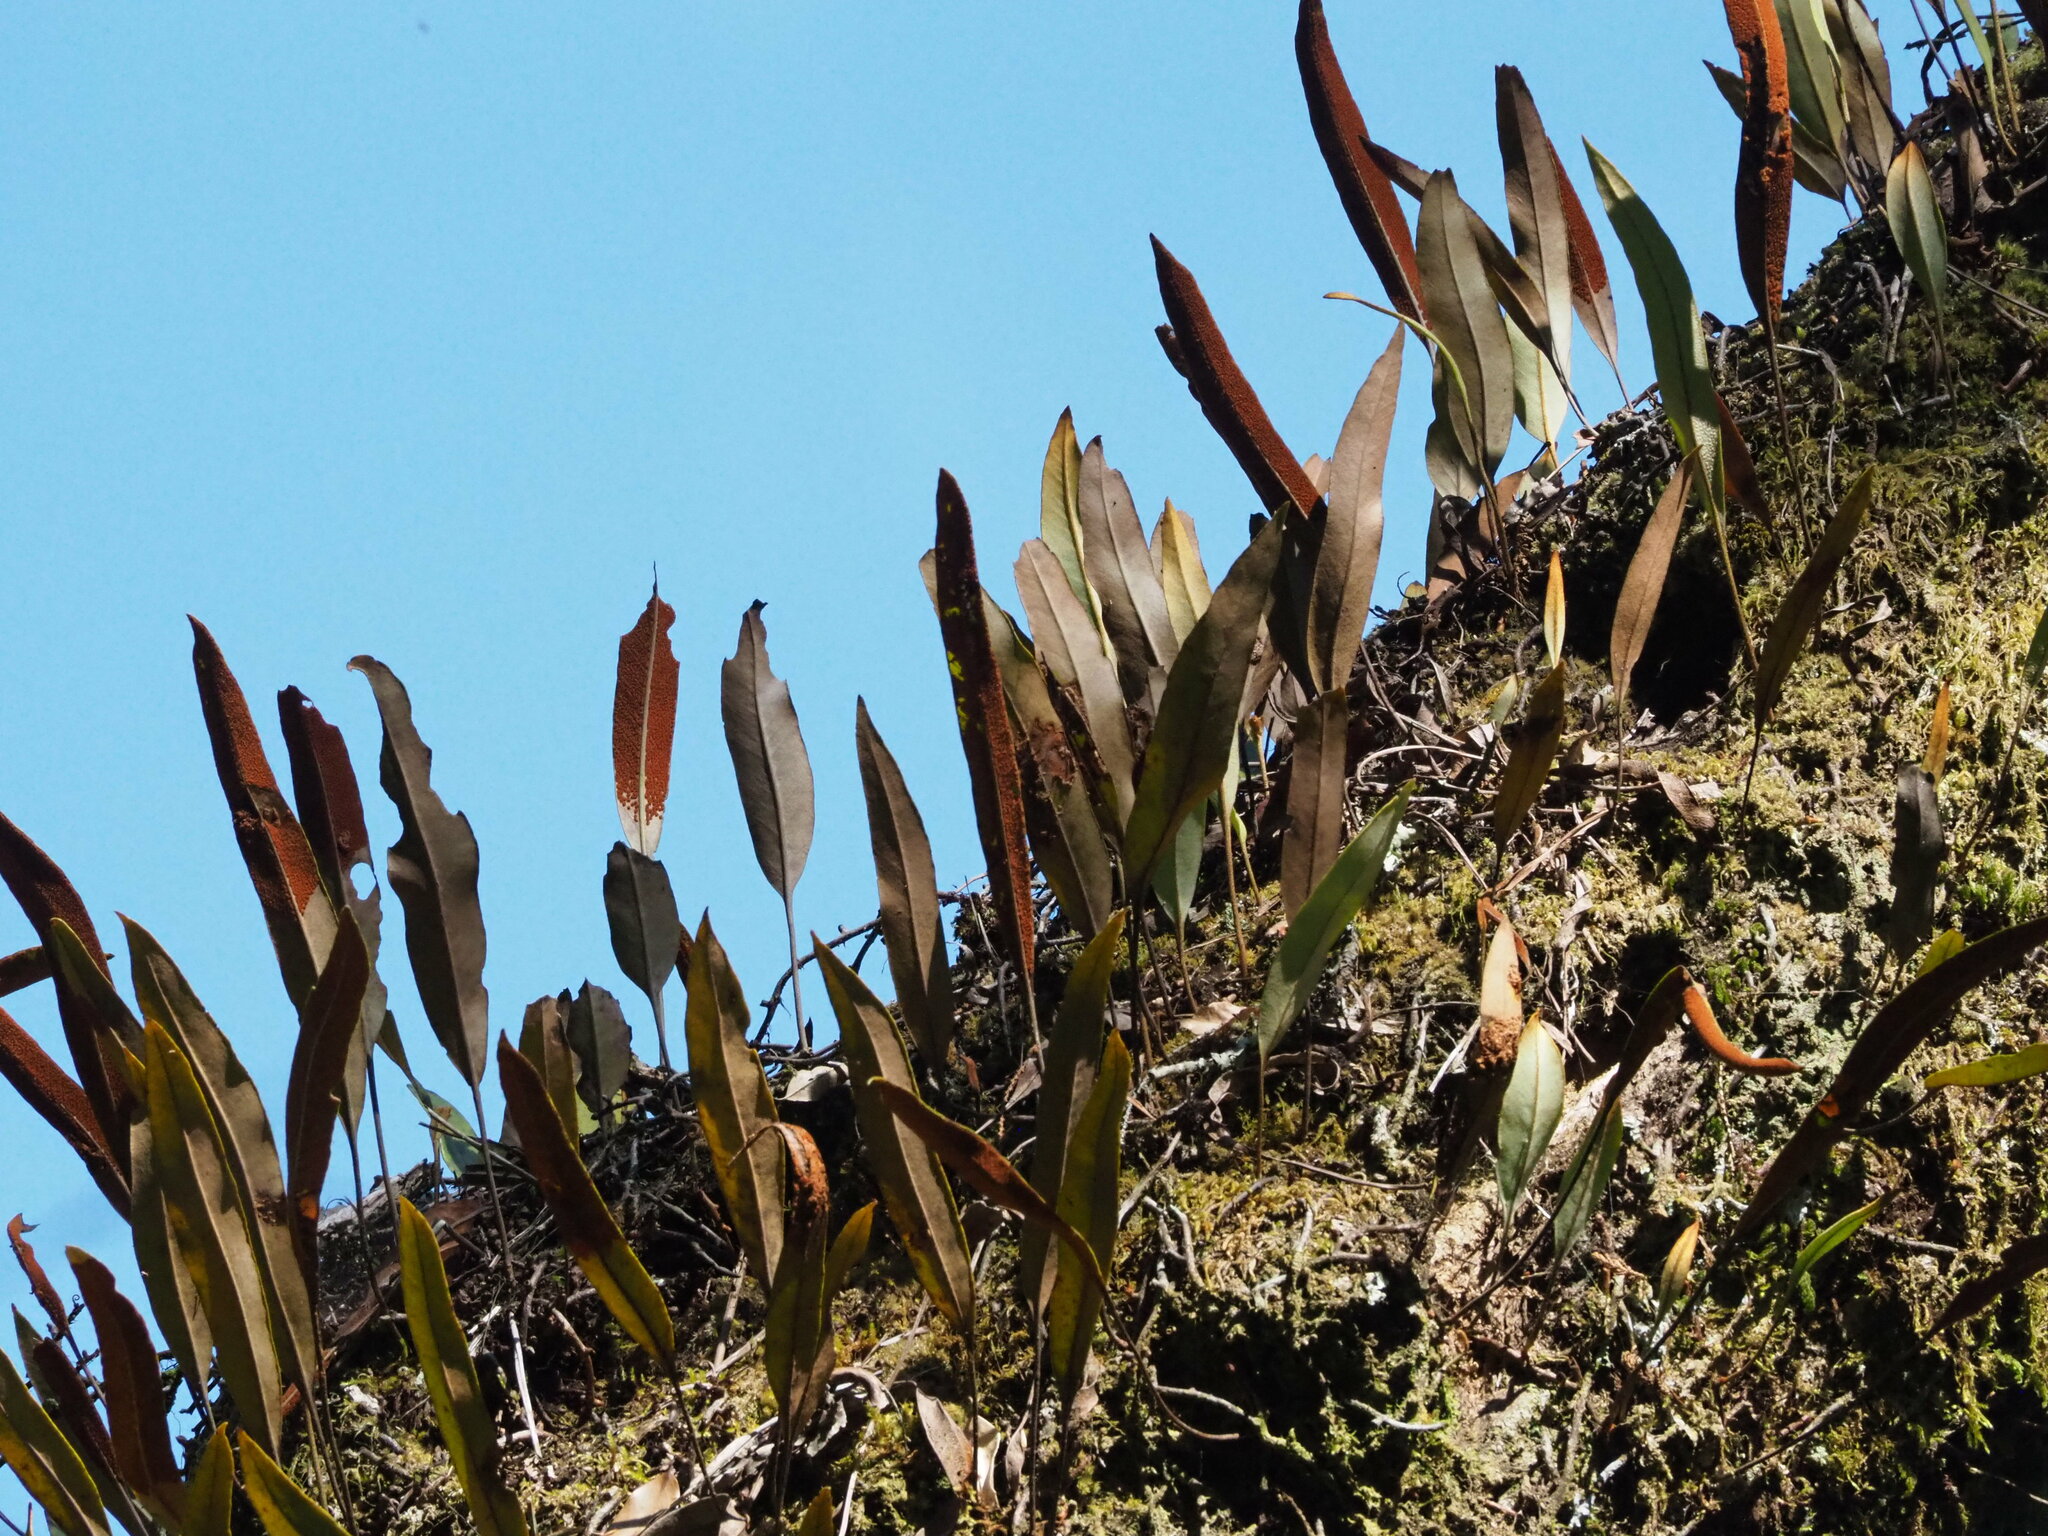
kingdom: Plantae
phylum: Tracheophyta
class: Polypodiopsida
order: Polypodiales
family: Polypodiaceae
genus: Pyrrosia
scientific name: Pyrrosia lingua
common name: Felt fern
